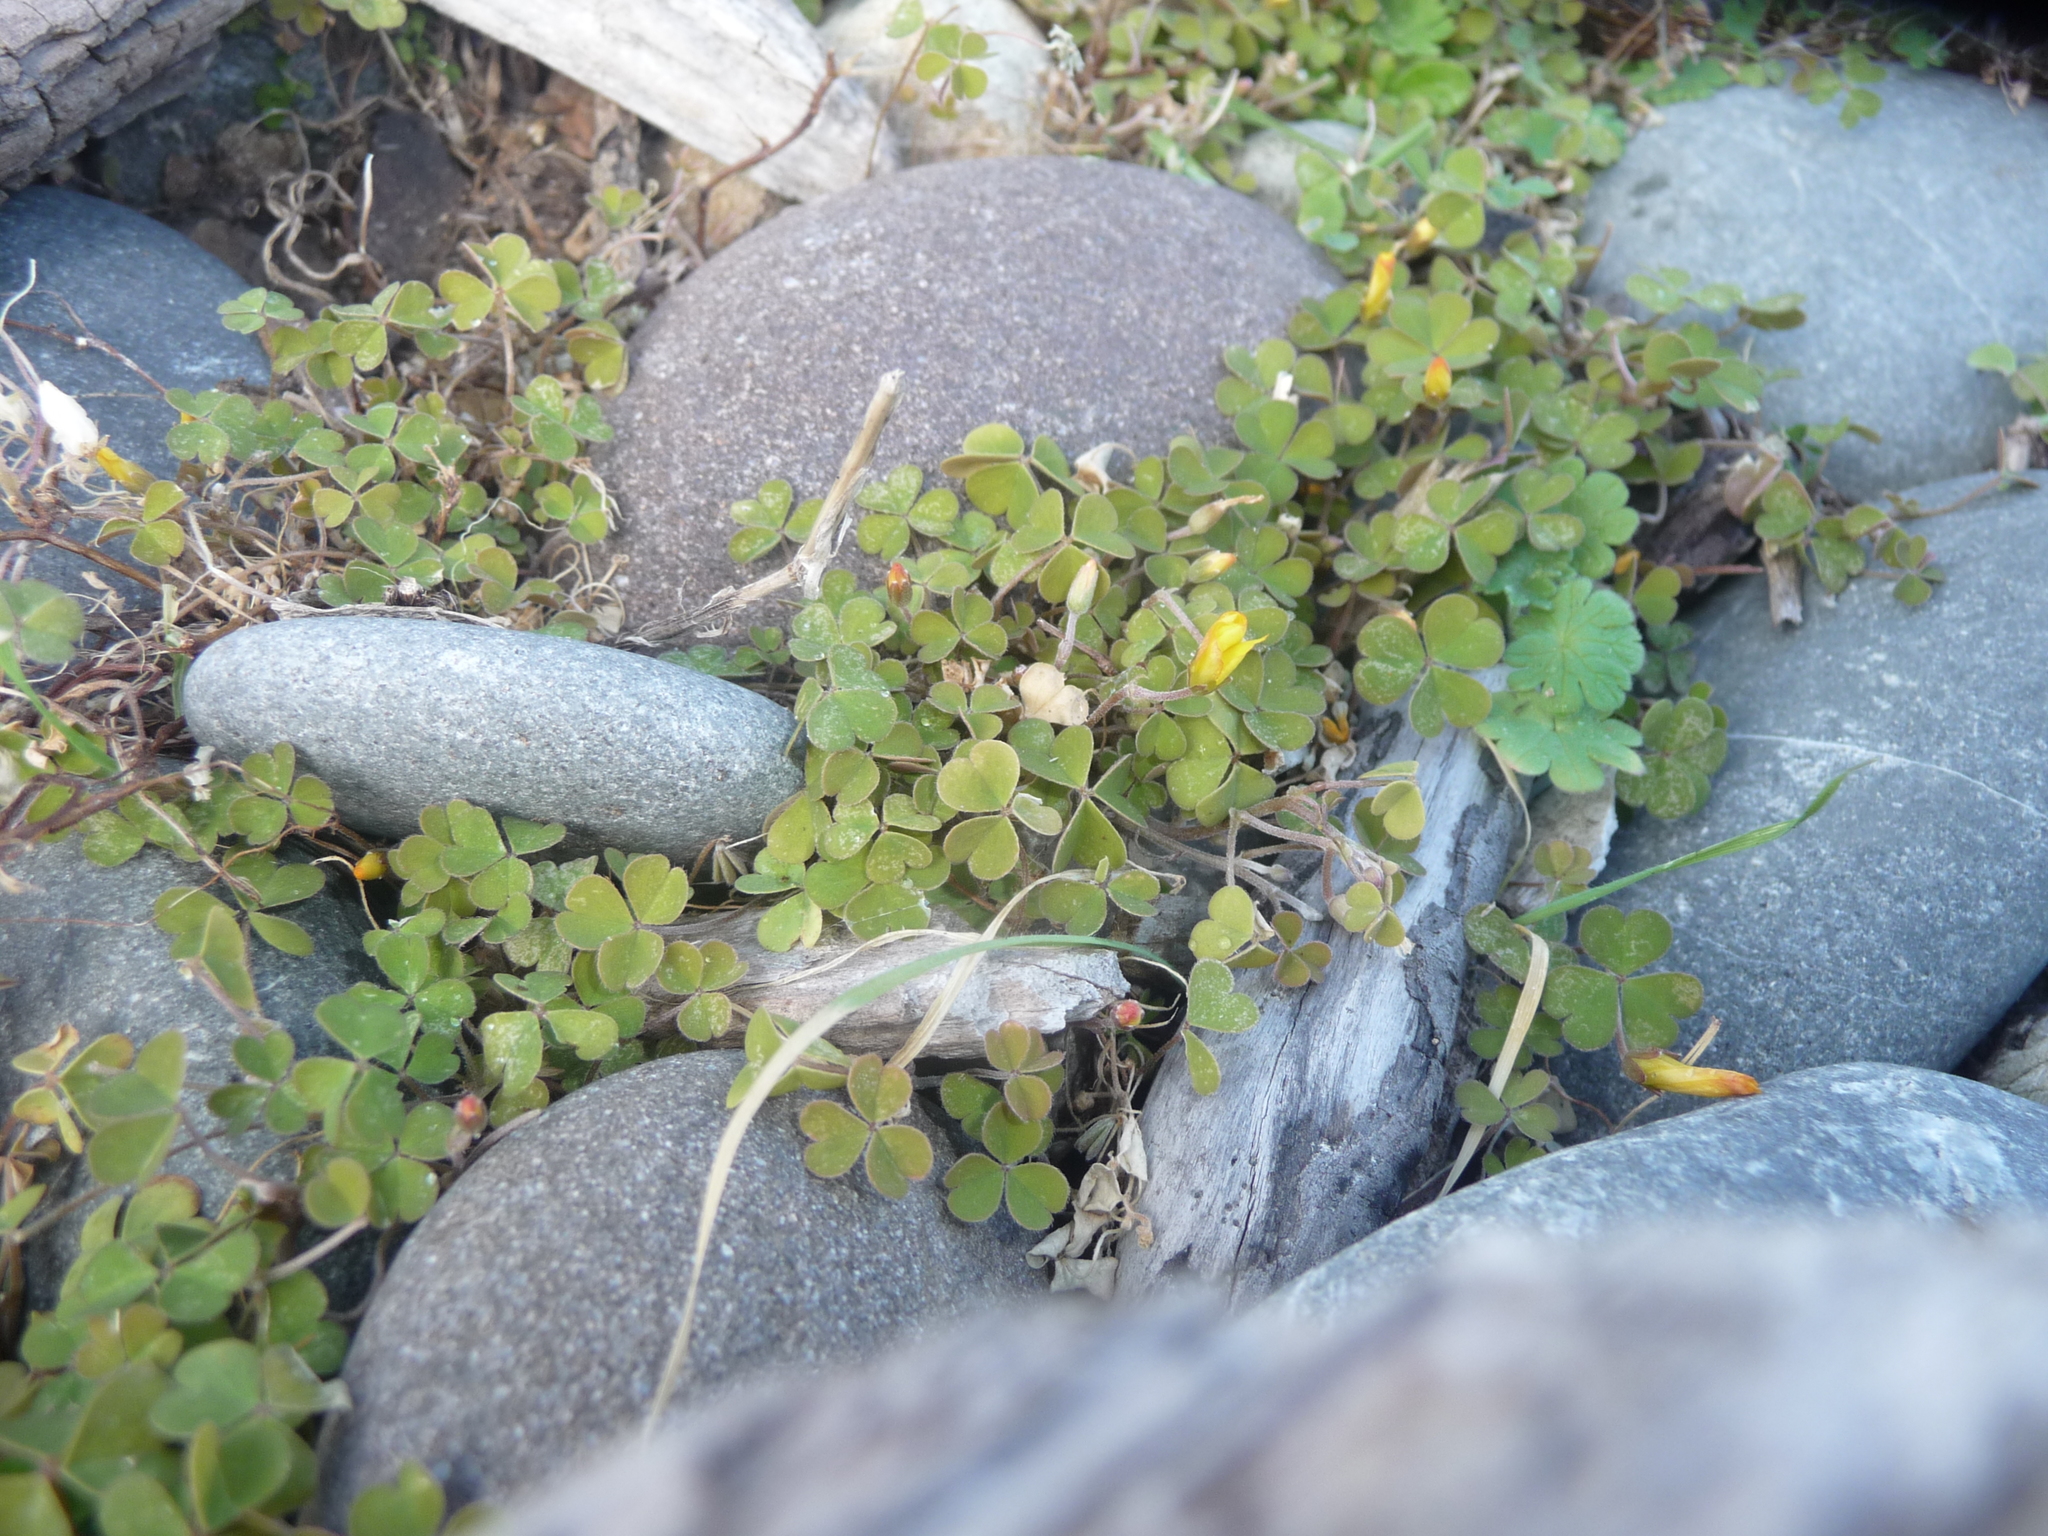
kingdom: Plantae
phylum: Tracheophyta
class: Magnoliopsida
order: Oxalidales
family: Oxalidaceae
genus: Oxalis
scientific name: Oxalis exilis
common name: Least yellow-sorrel
